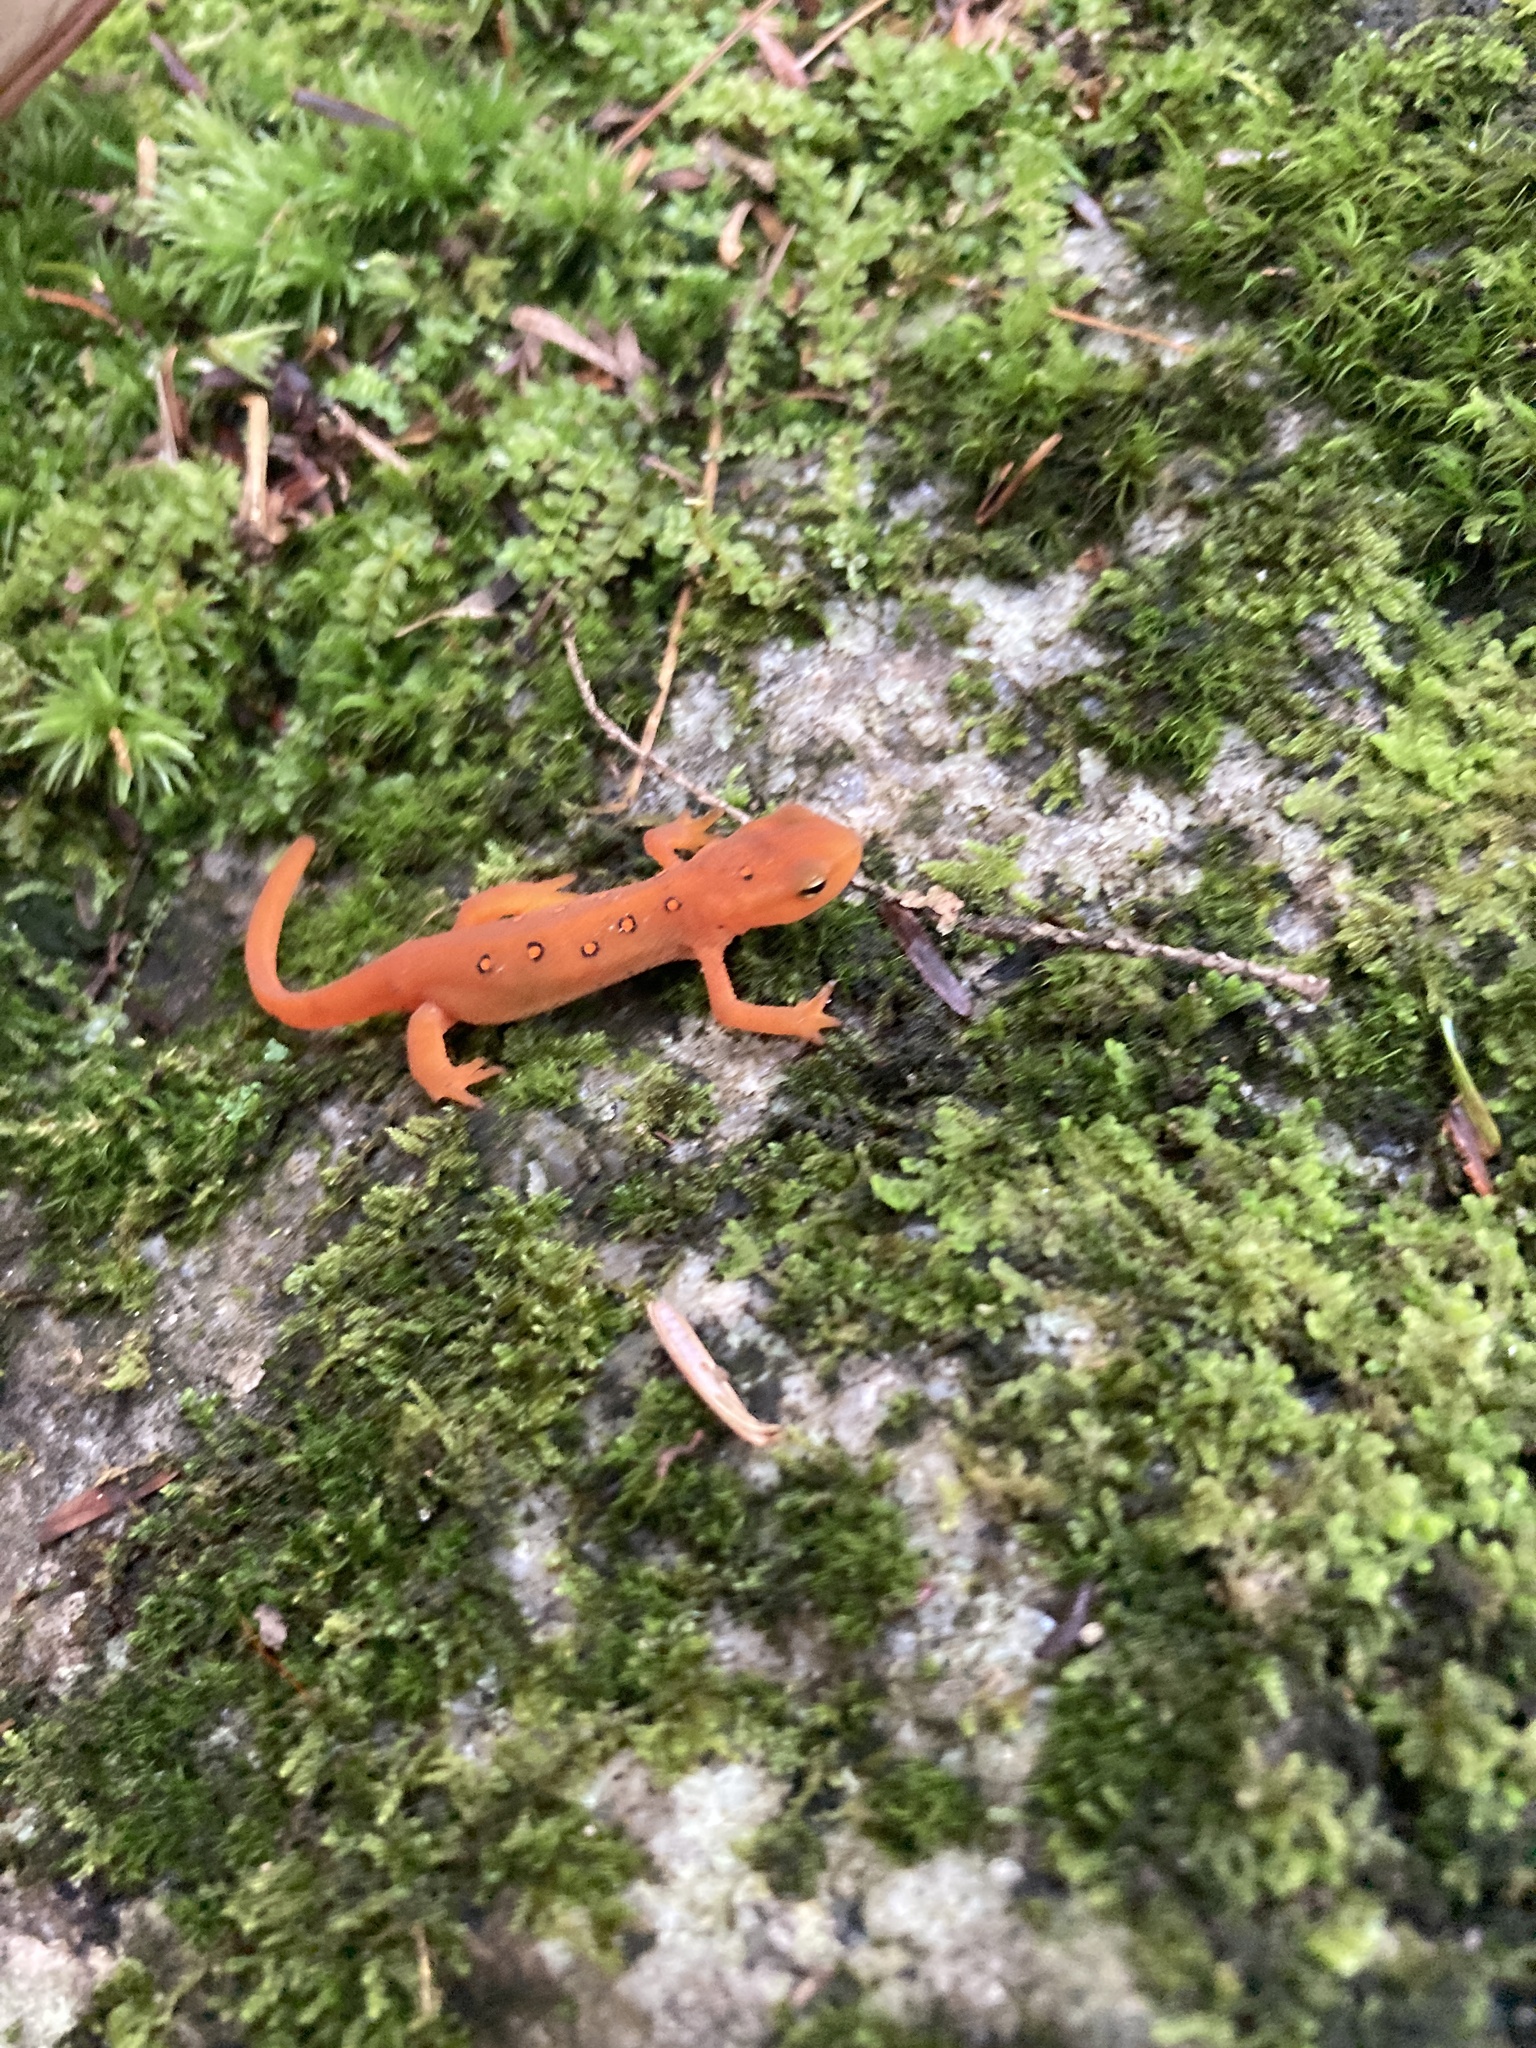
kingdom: Animalia
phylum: Chordata
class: Amphibia
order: Caudata
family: Salamandridae
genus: Notophthalmus
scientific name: Notophthalmus viridescens
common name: Eastern newt
